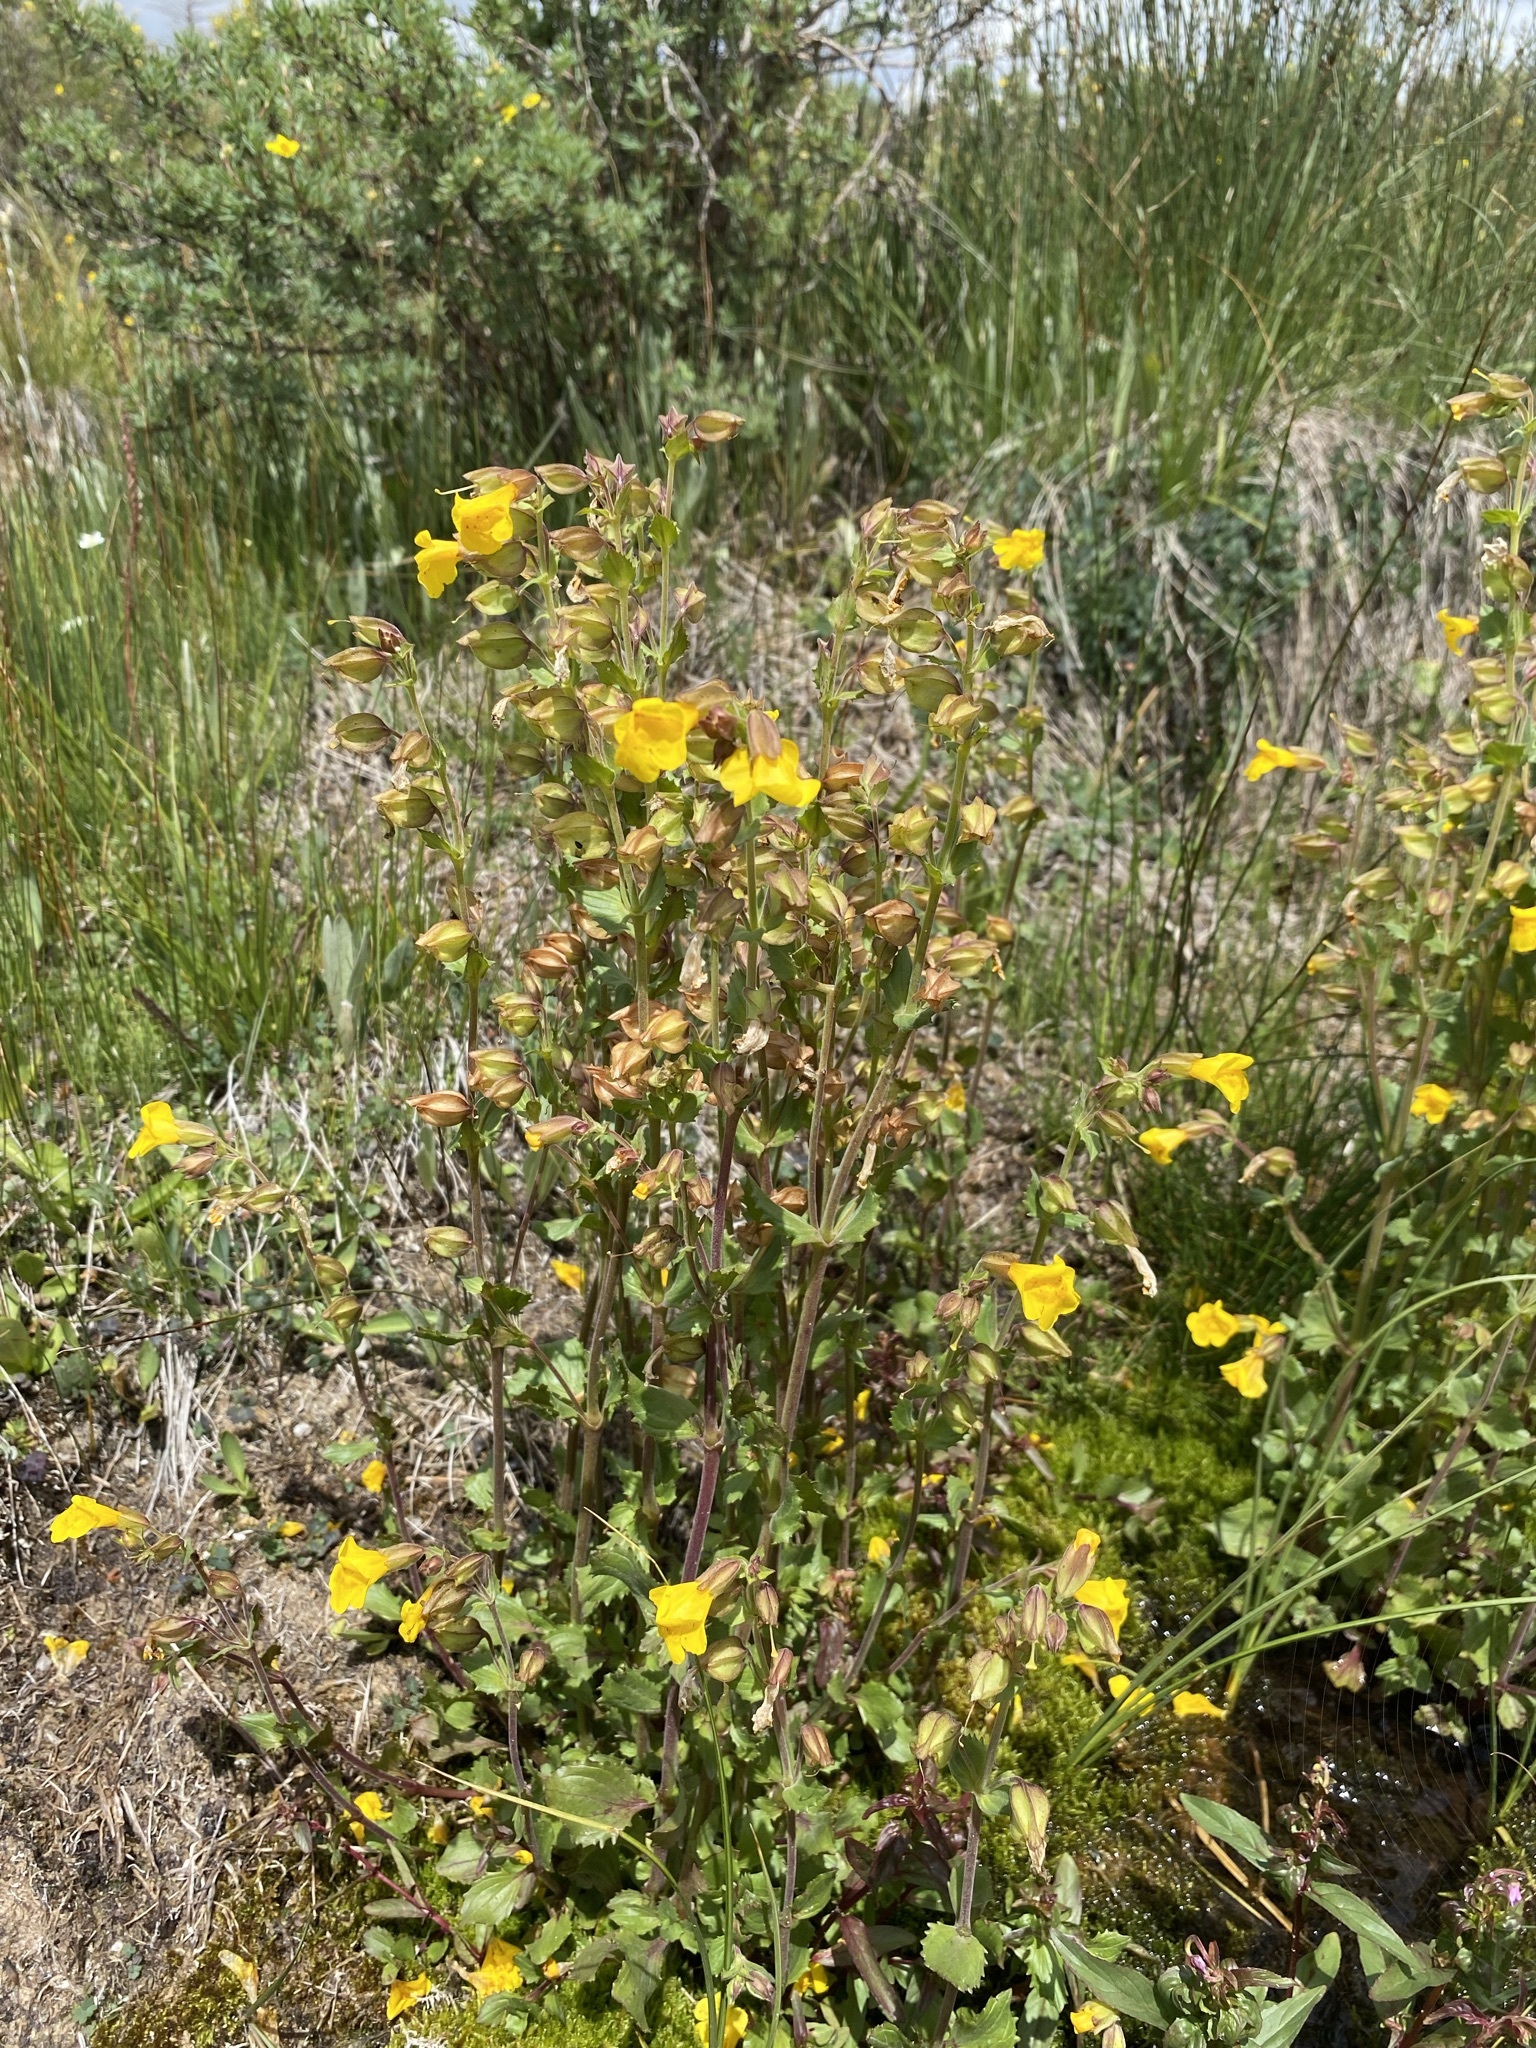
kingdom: Plantae
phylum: Tracheophyta
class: Magnoliopsida
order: Lamiales
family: Phrymaceae
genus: Erythranthe
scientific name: Erythranthe guttata
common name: Monkeyflower
